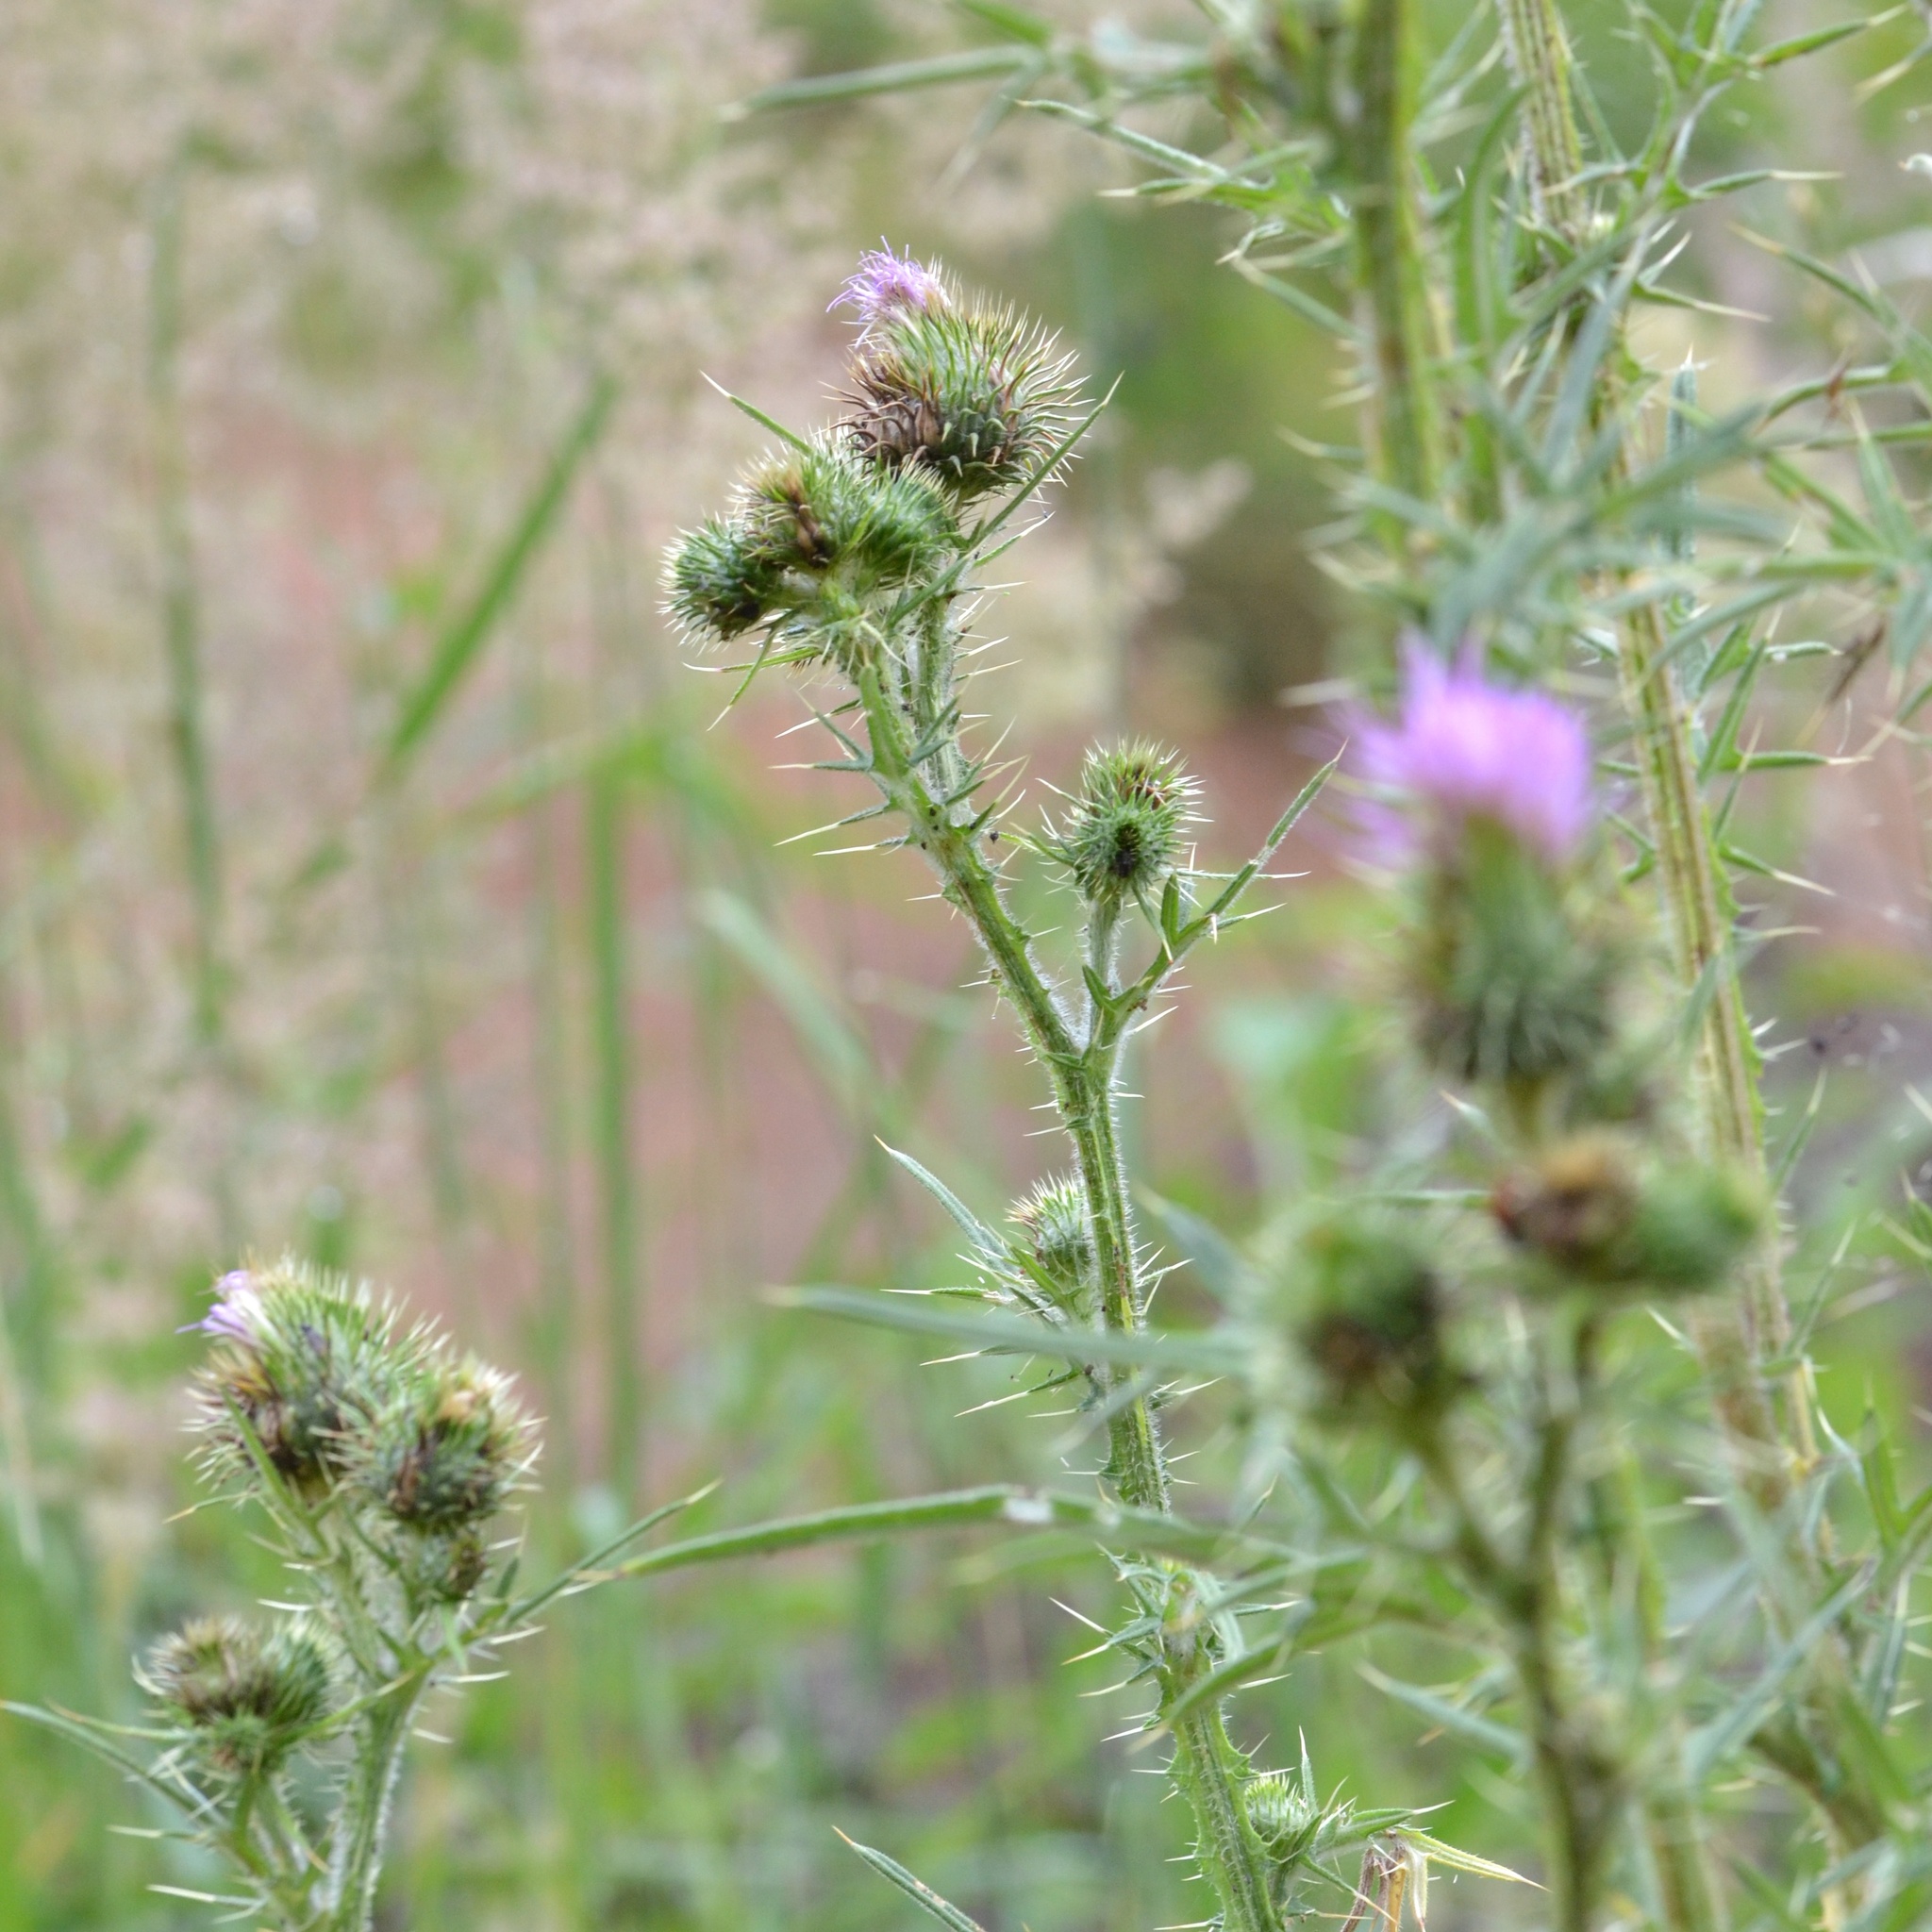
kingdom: Plantae
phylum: Tracheophyta
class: Magnoliopsida
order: Asterales
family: Asteraceae
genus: Cirsium
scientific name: Cirsium vulgare
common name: Bull thistle
